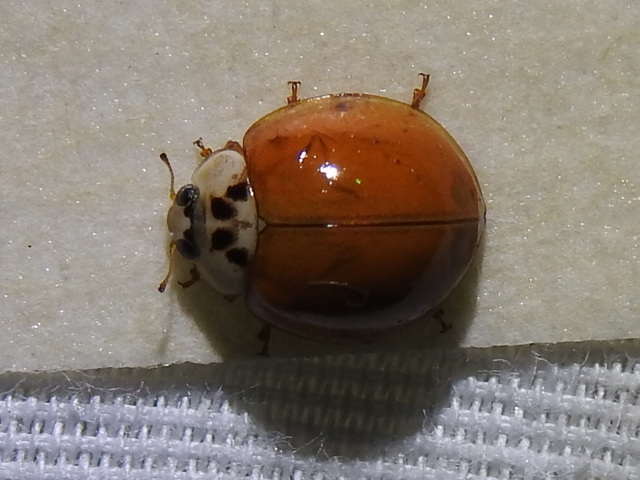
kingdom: Animalia
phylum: Arthropoda
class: Insecta
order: Coleoptera
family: Coccinellidae
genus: Harmonia
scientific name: Harmonia axyridis
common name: Harlequin ladybird
